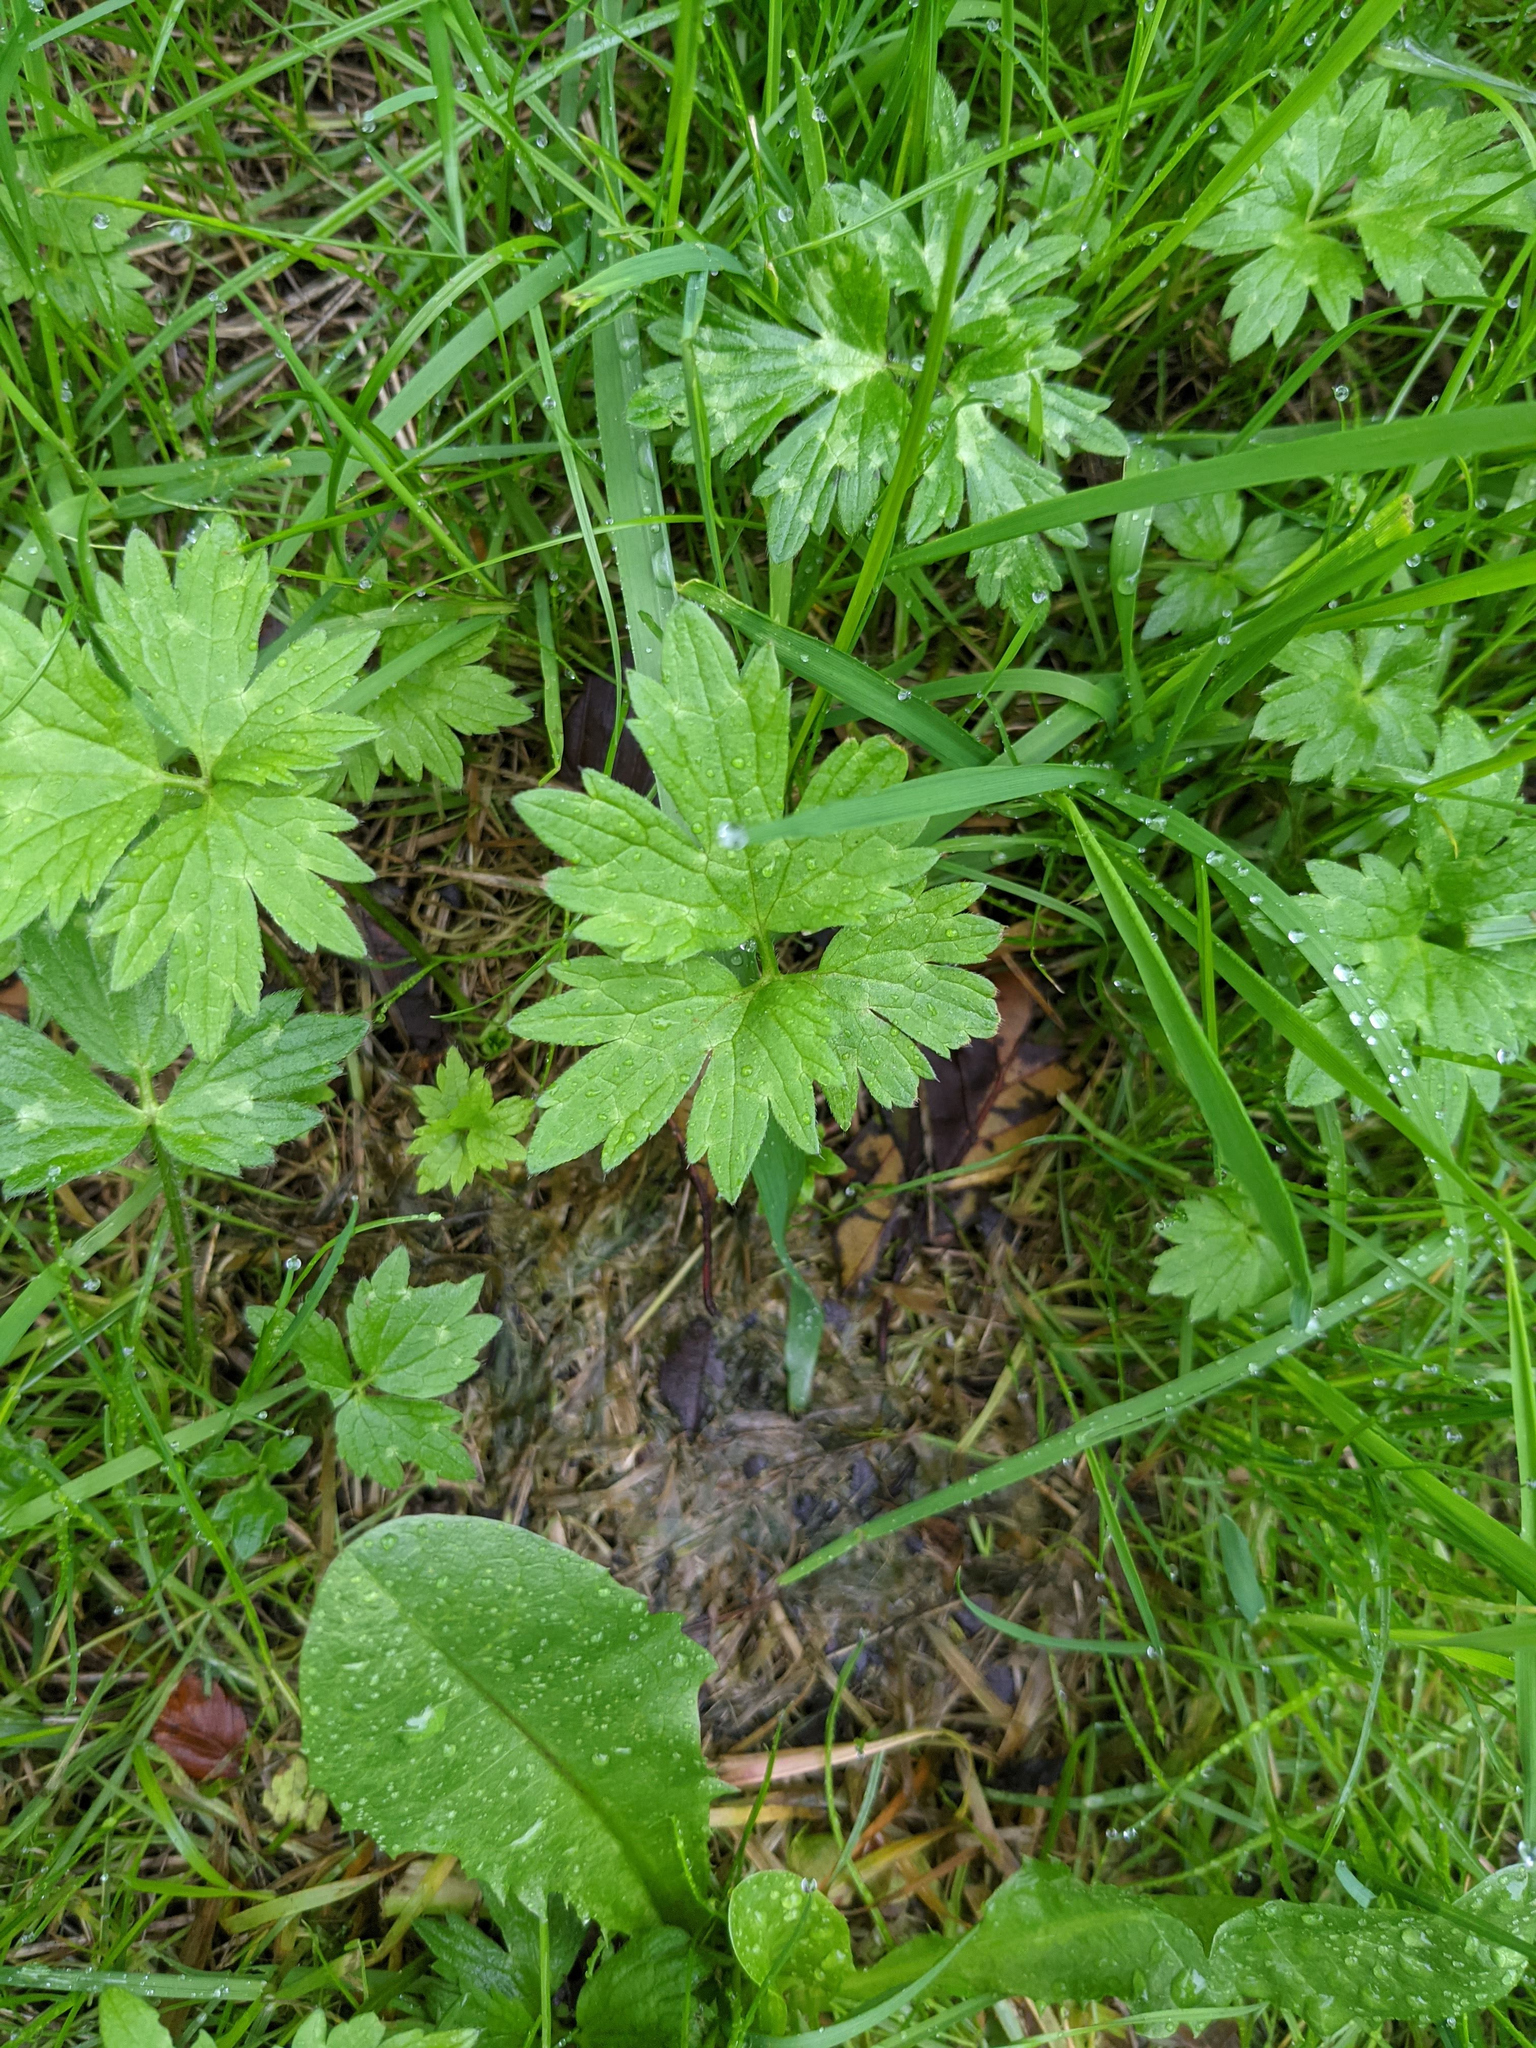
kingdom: Plantae
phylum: Tracheophyta
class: Magnoliopsida
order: Ranunculales
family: Ranunculaceae
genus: Ranunculus
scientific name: Ranunculus repens
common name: Creeping buttercup
